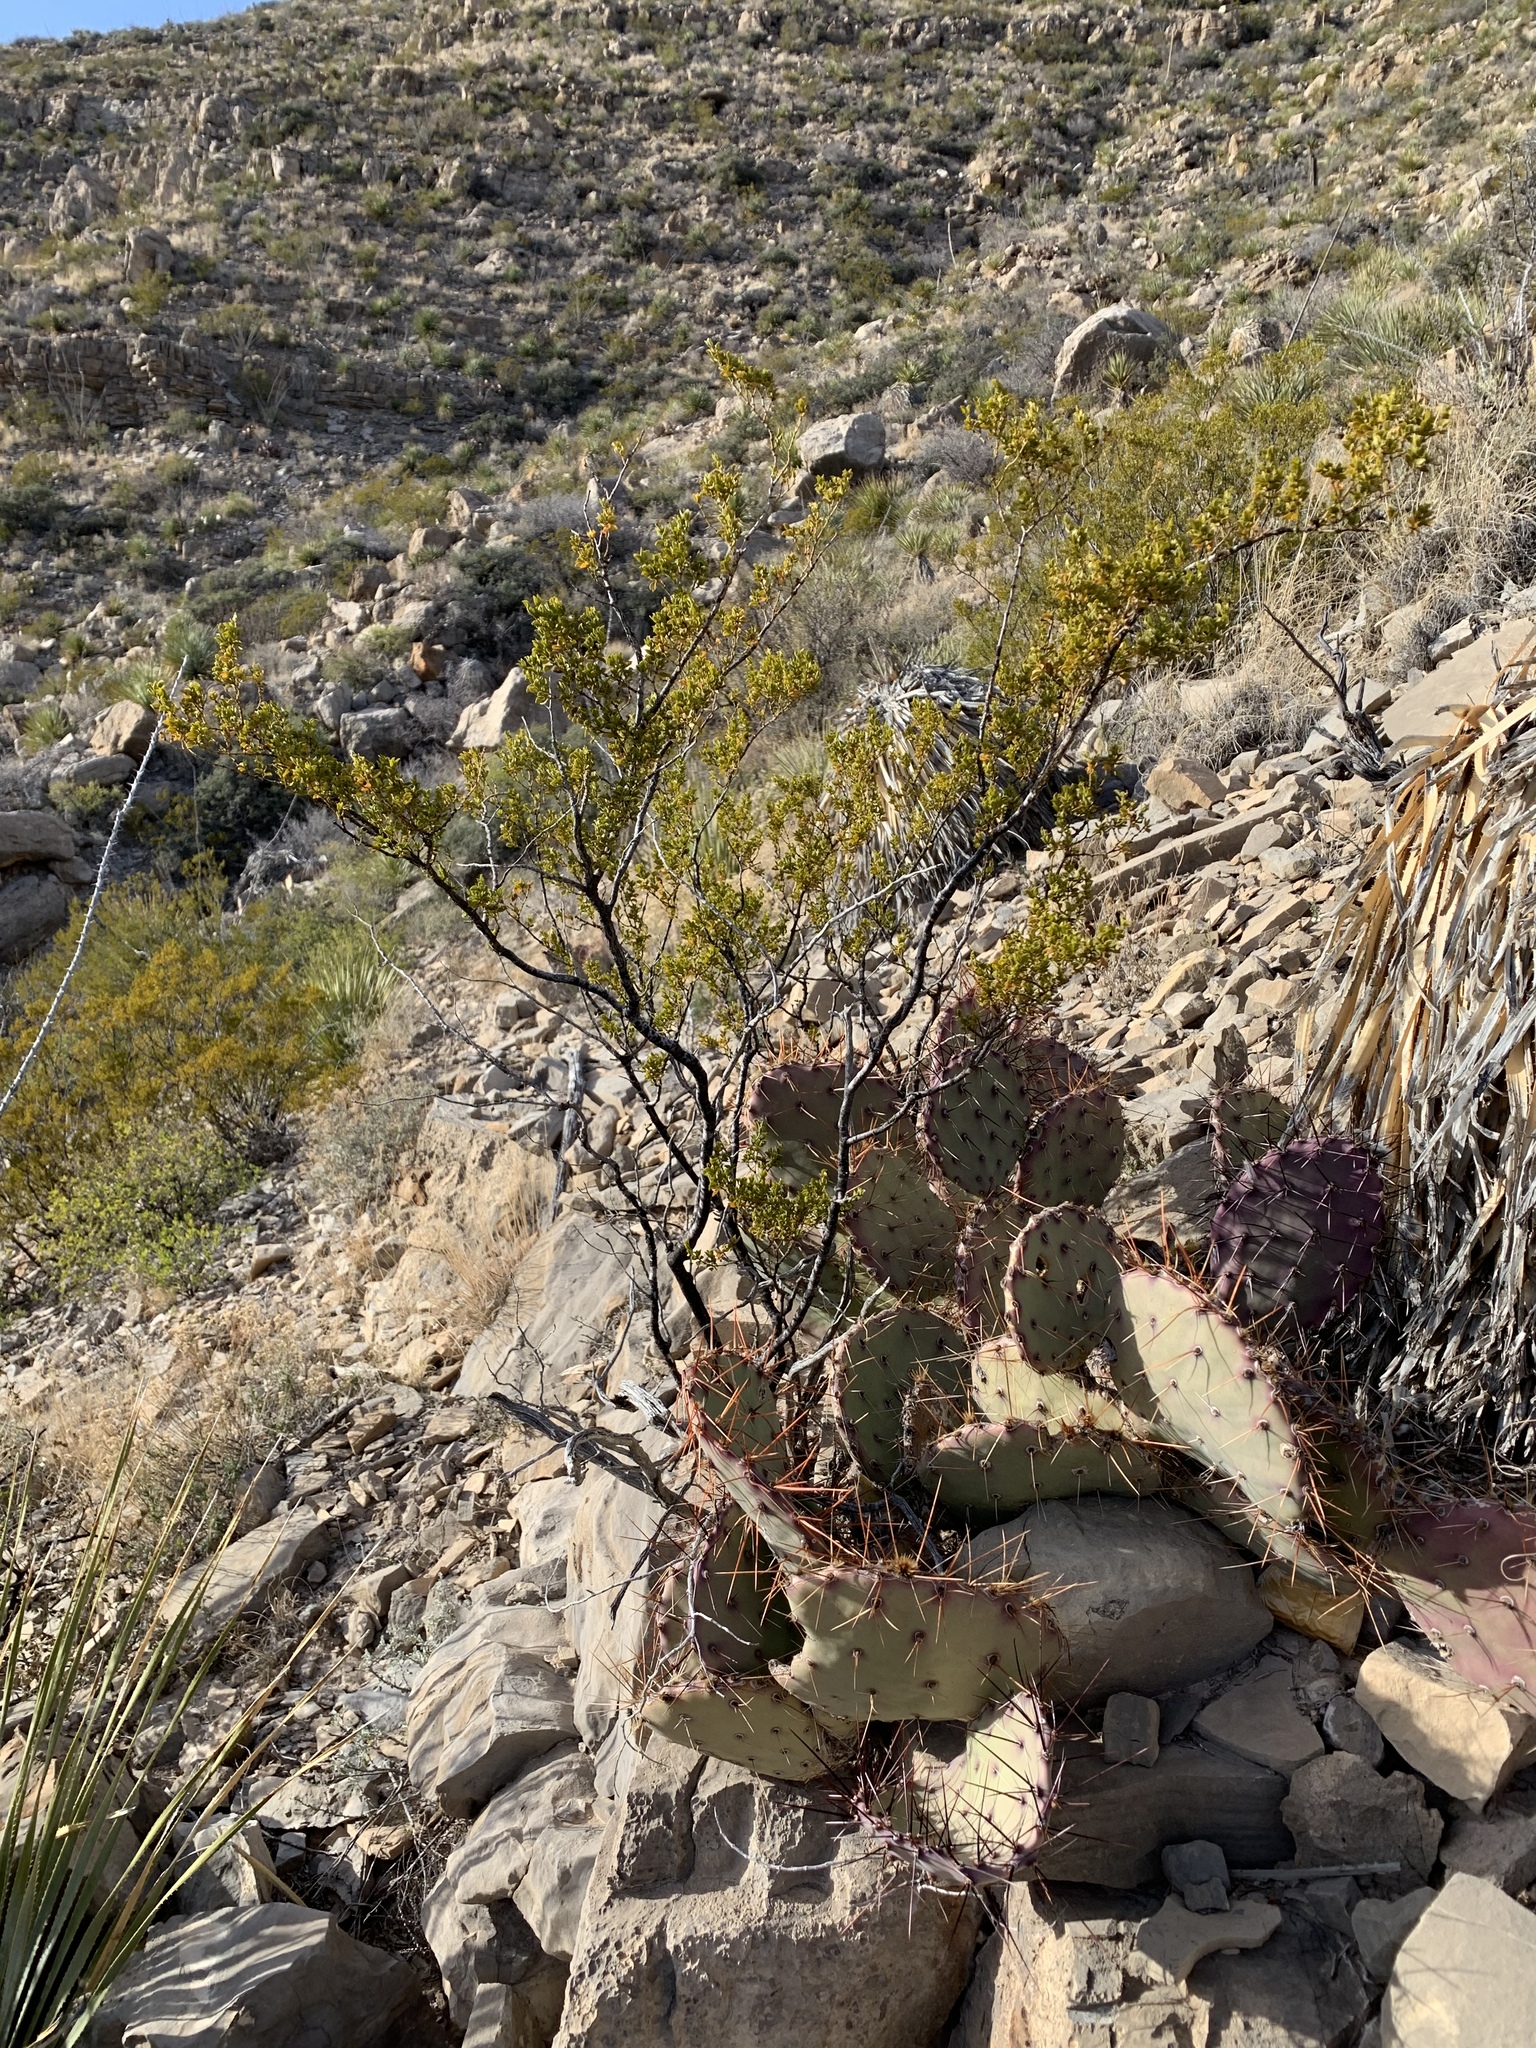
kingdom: Plantae
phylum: Tracheophyta
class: Magnoliopsida
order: Zygophyllales
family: Zygophyllaceae
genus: Larrea
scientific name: Larrea tridentata
